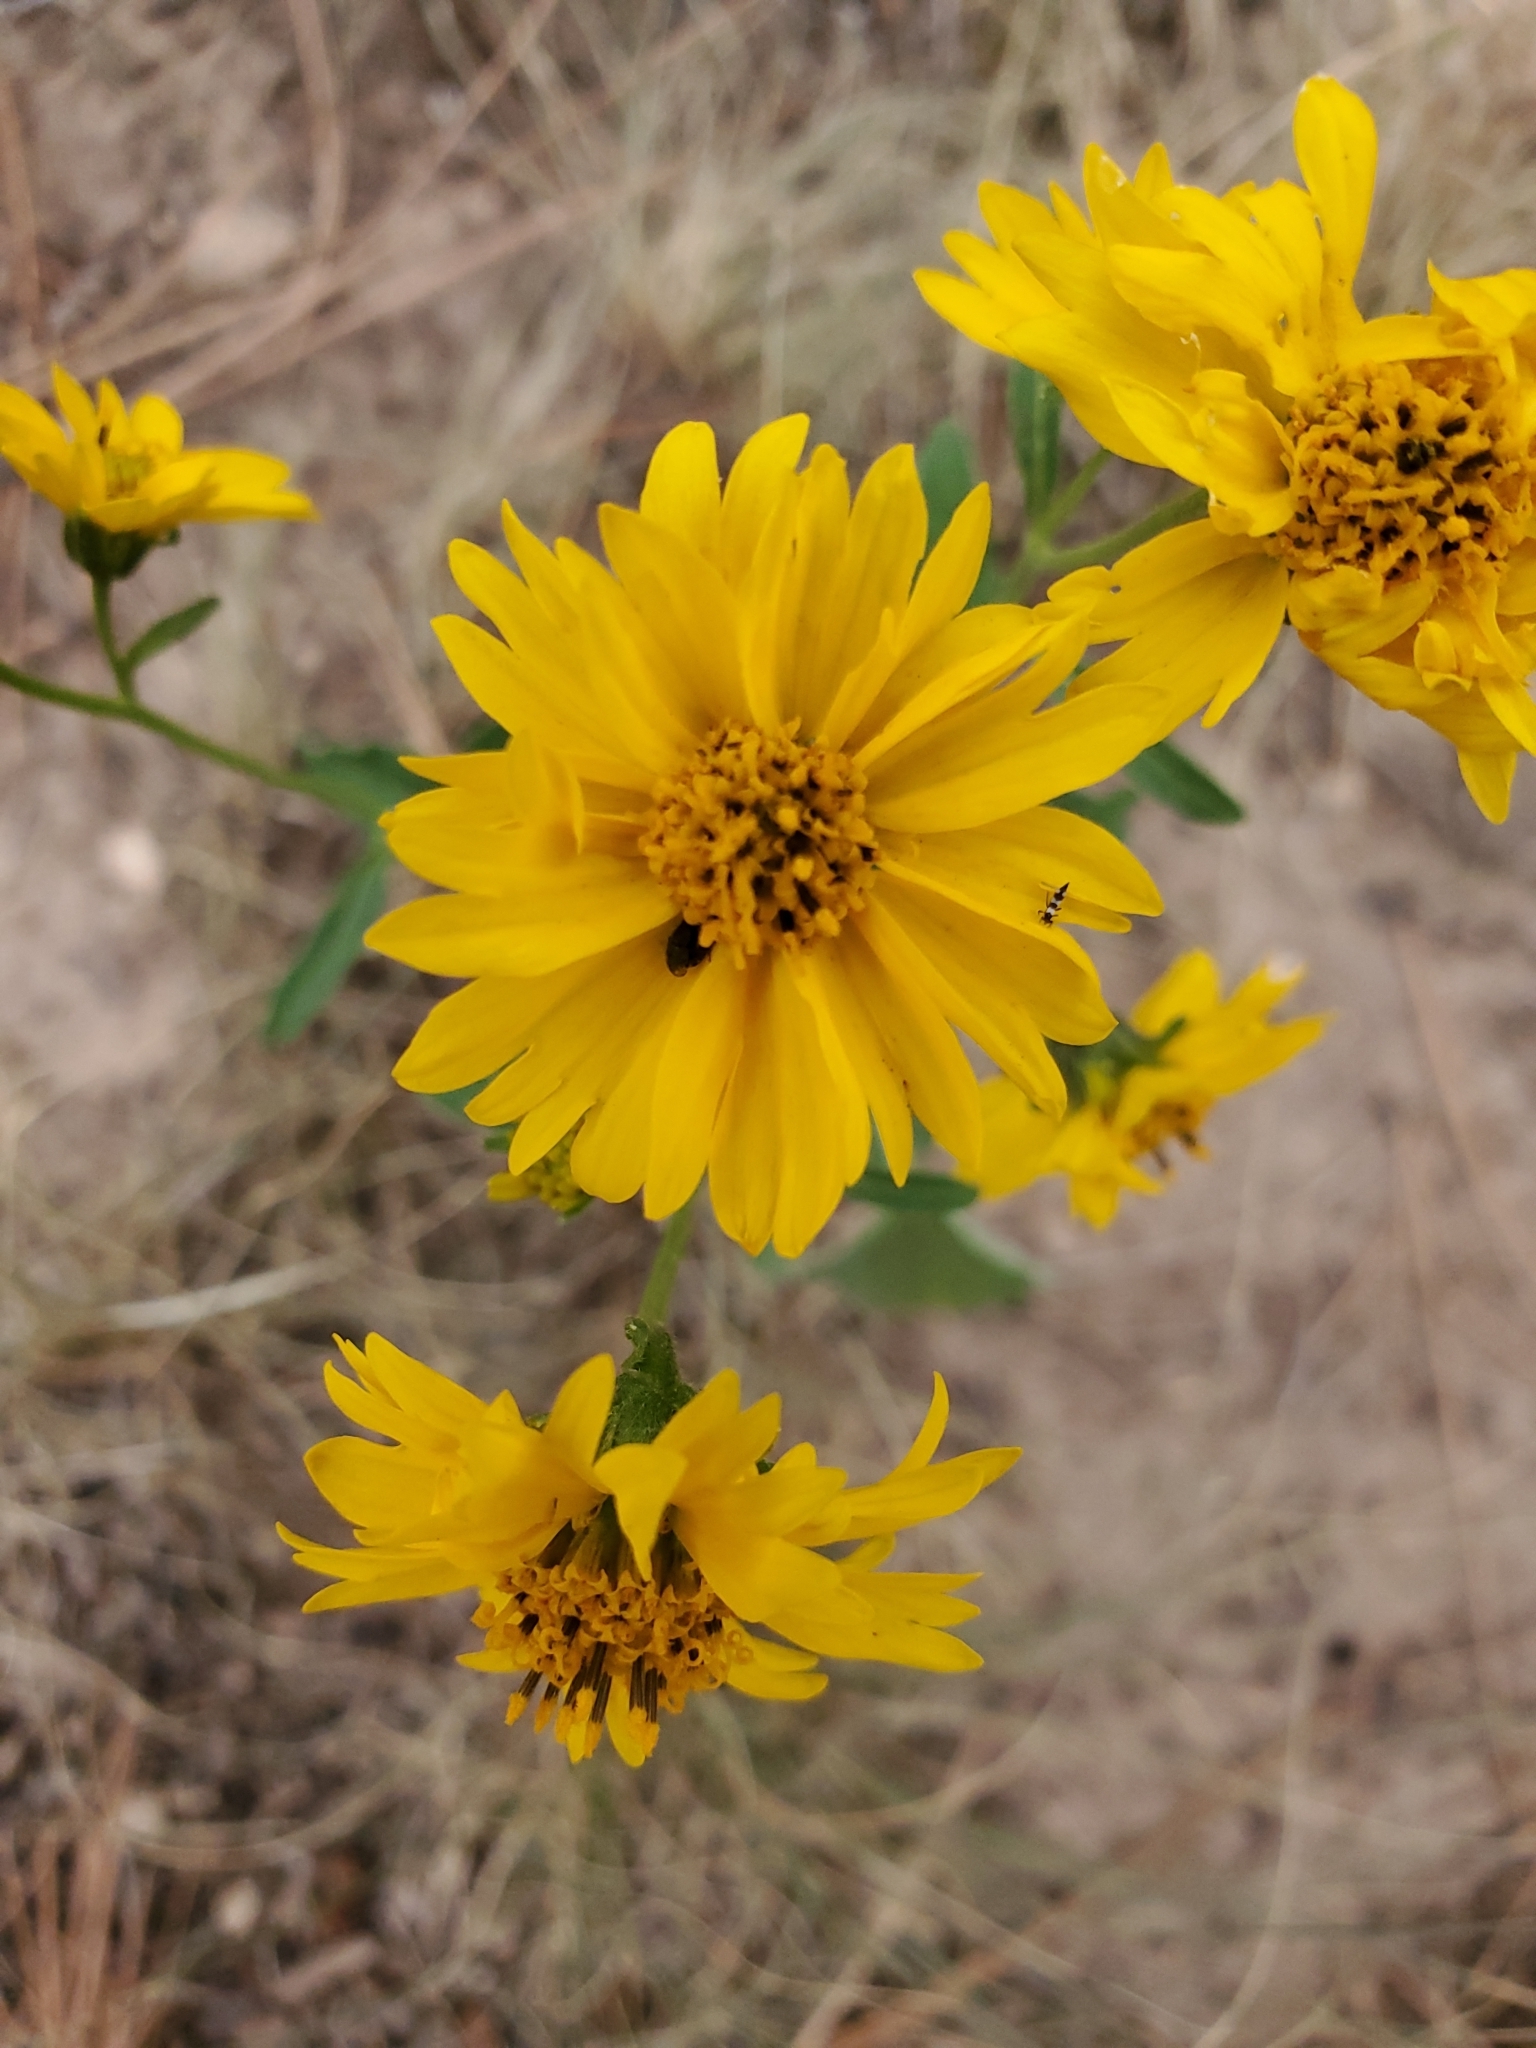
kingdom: Plantae
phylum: Tracheophyta
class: Magnoliopsida
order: Asterales
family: Asteraceae
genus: Verbesina
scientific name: Verbesina encelioides
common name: Golden crownbeard
